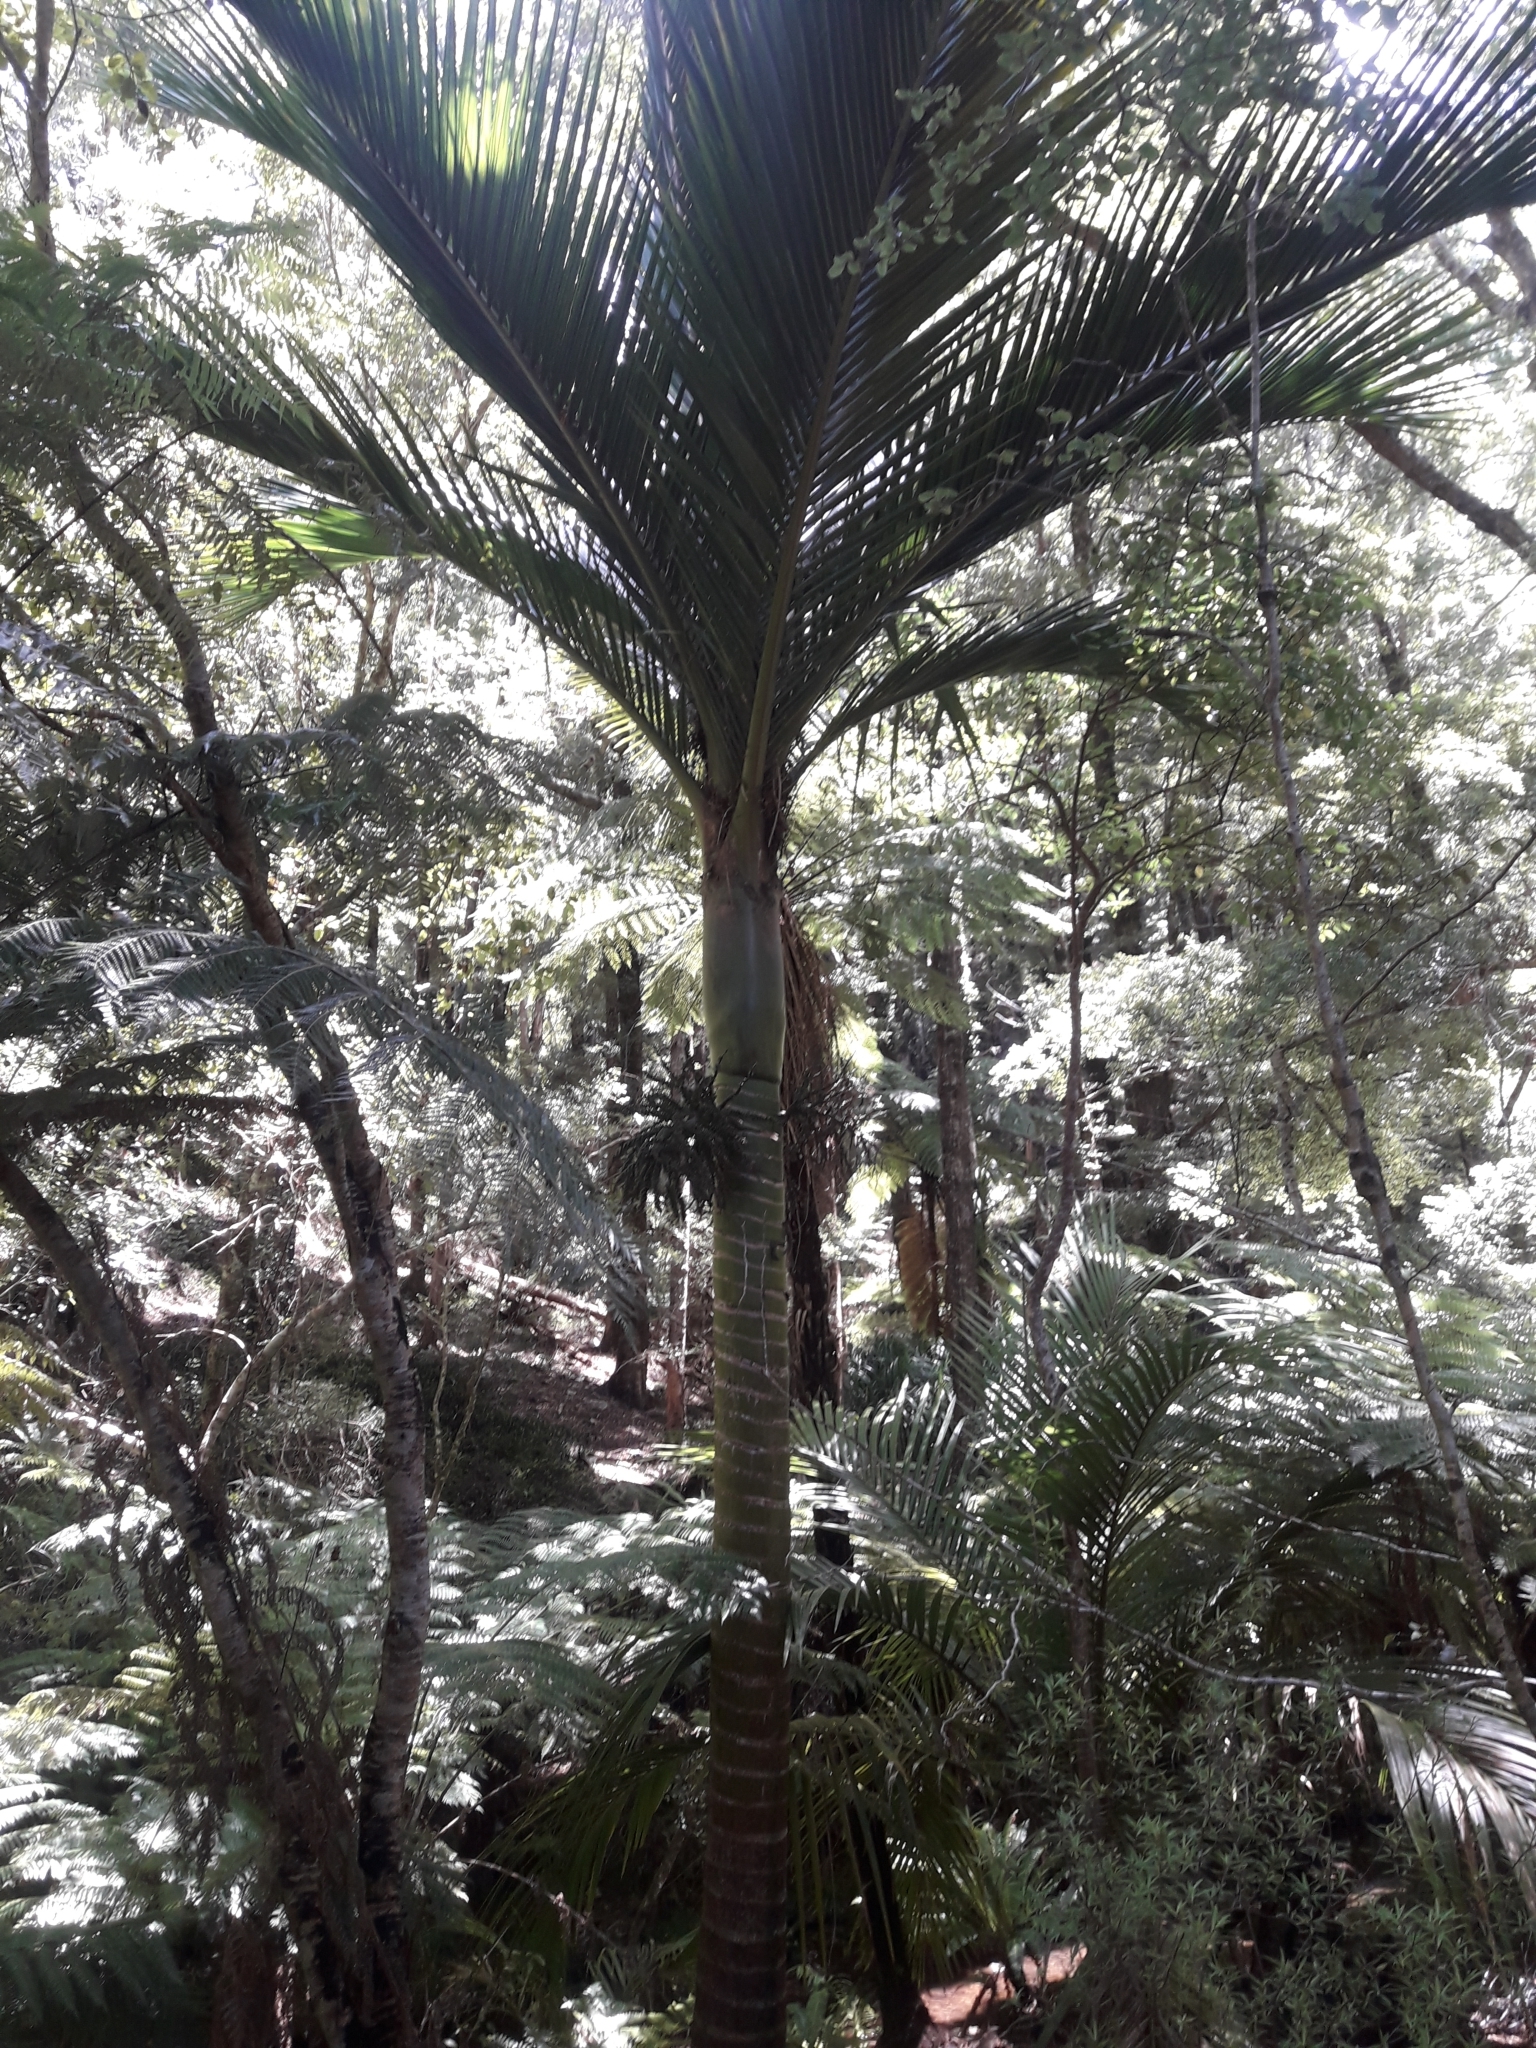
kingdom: Plantae
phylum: Tracheophyta
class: Liliopsida
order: Arecales
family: Arecaceae
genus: Rhopalostylis
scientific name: Rhopalostylis sapida
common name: Feather-duster palm
